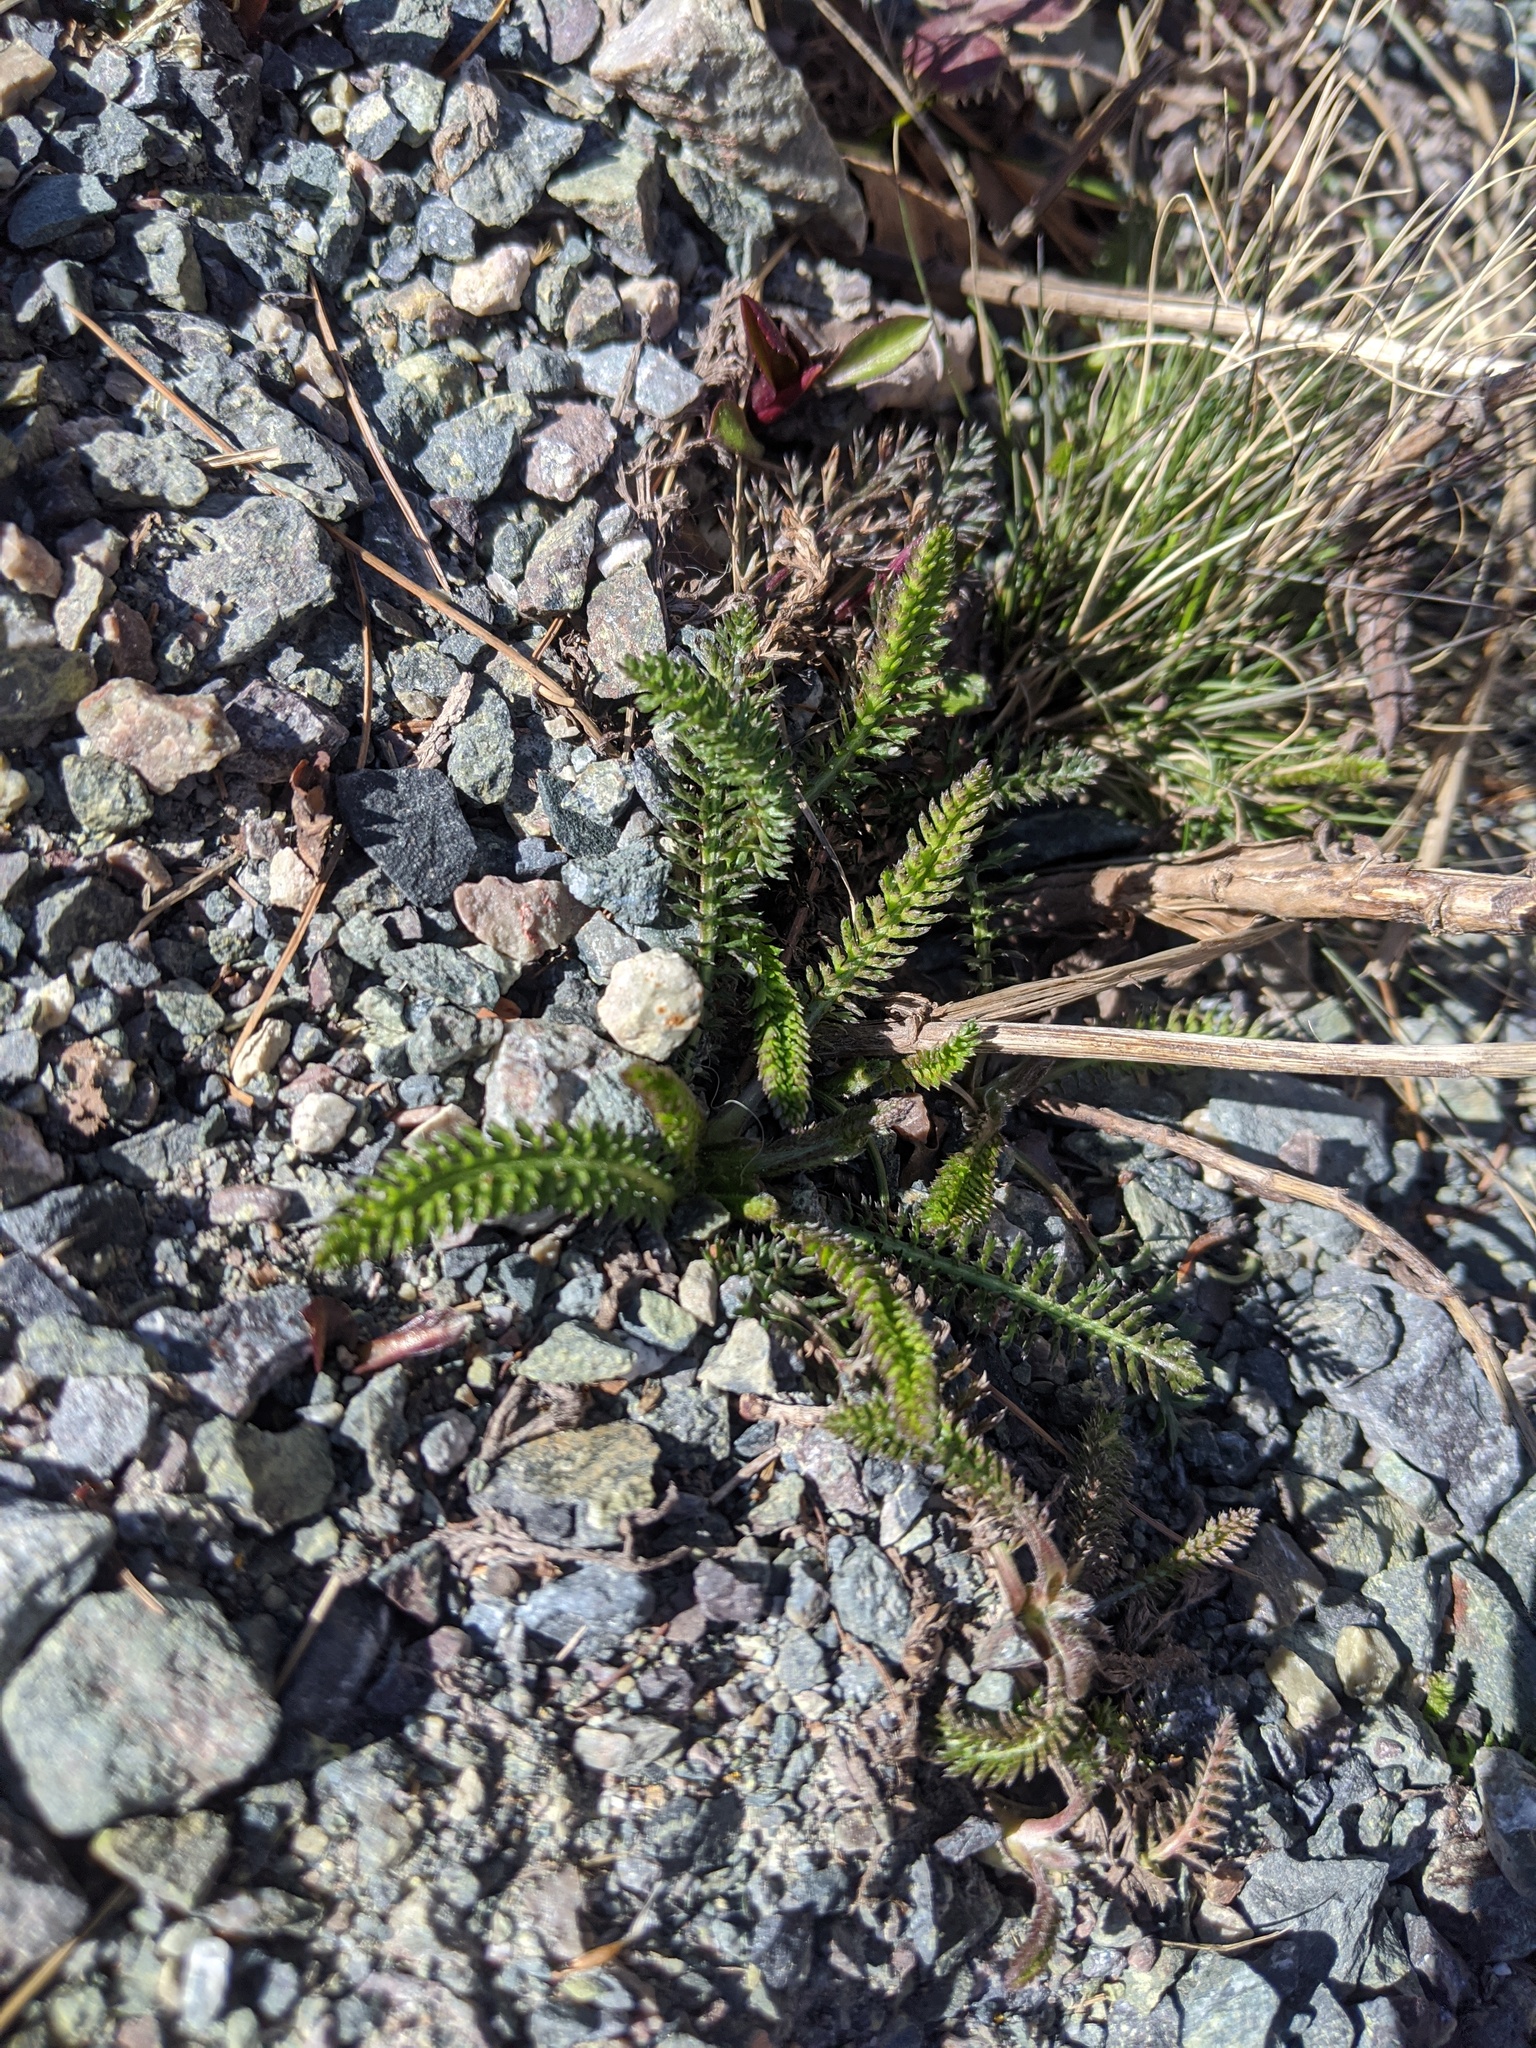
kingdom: Plantae
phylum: Tracheophyta
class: Magnoliopsida
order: Asterales
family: Asteraceae
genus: Achillea
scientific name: Achillea millefolium
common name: Yarrow
